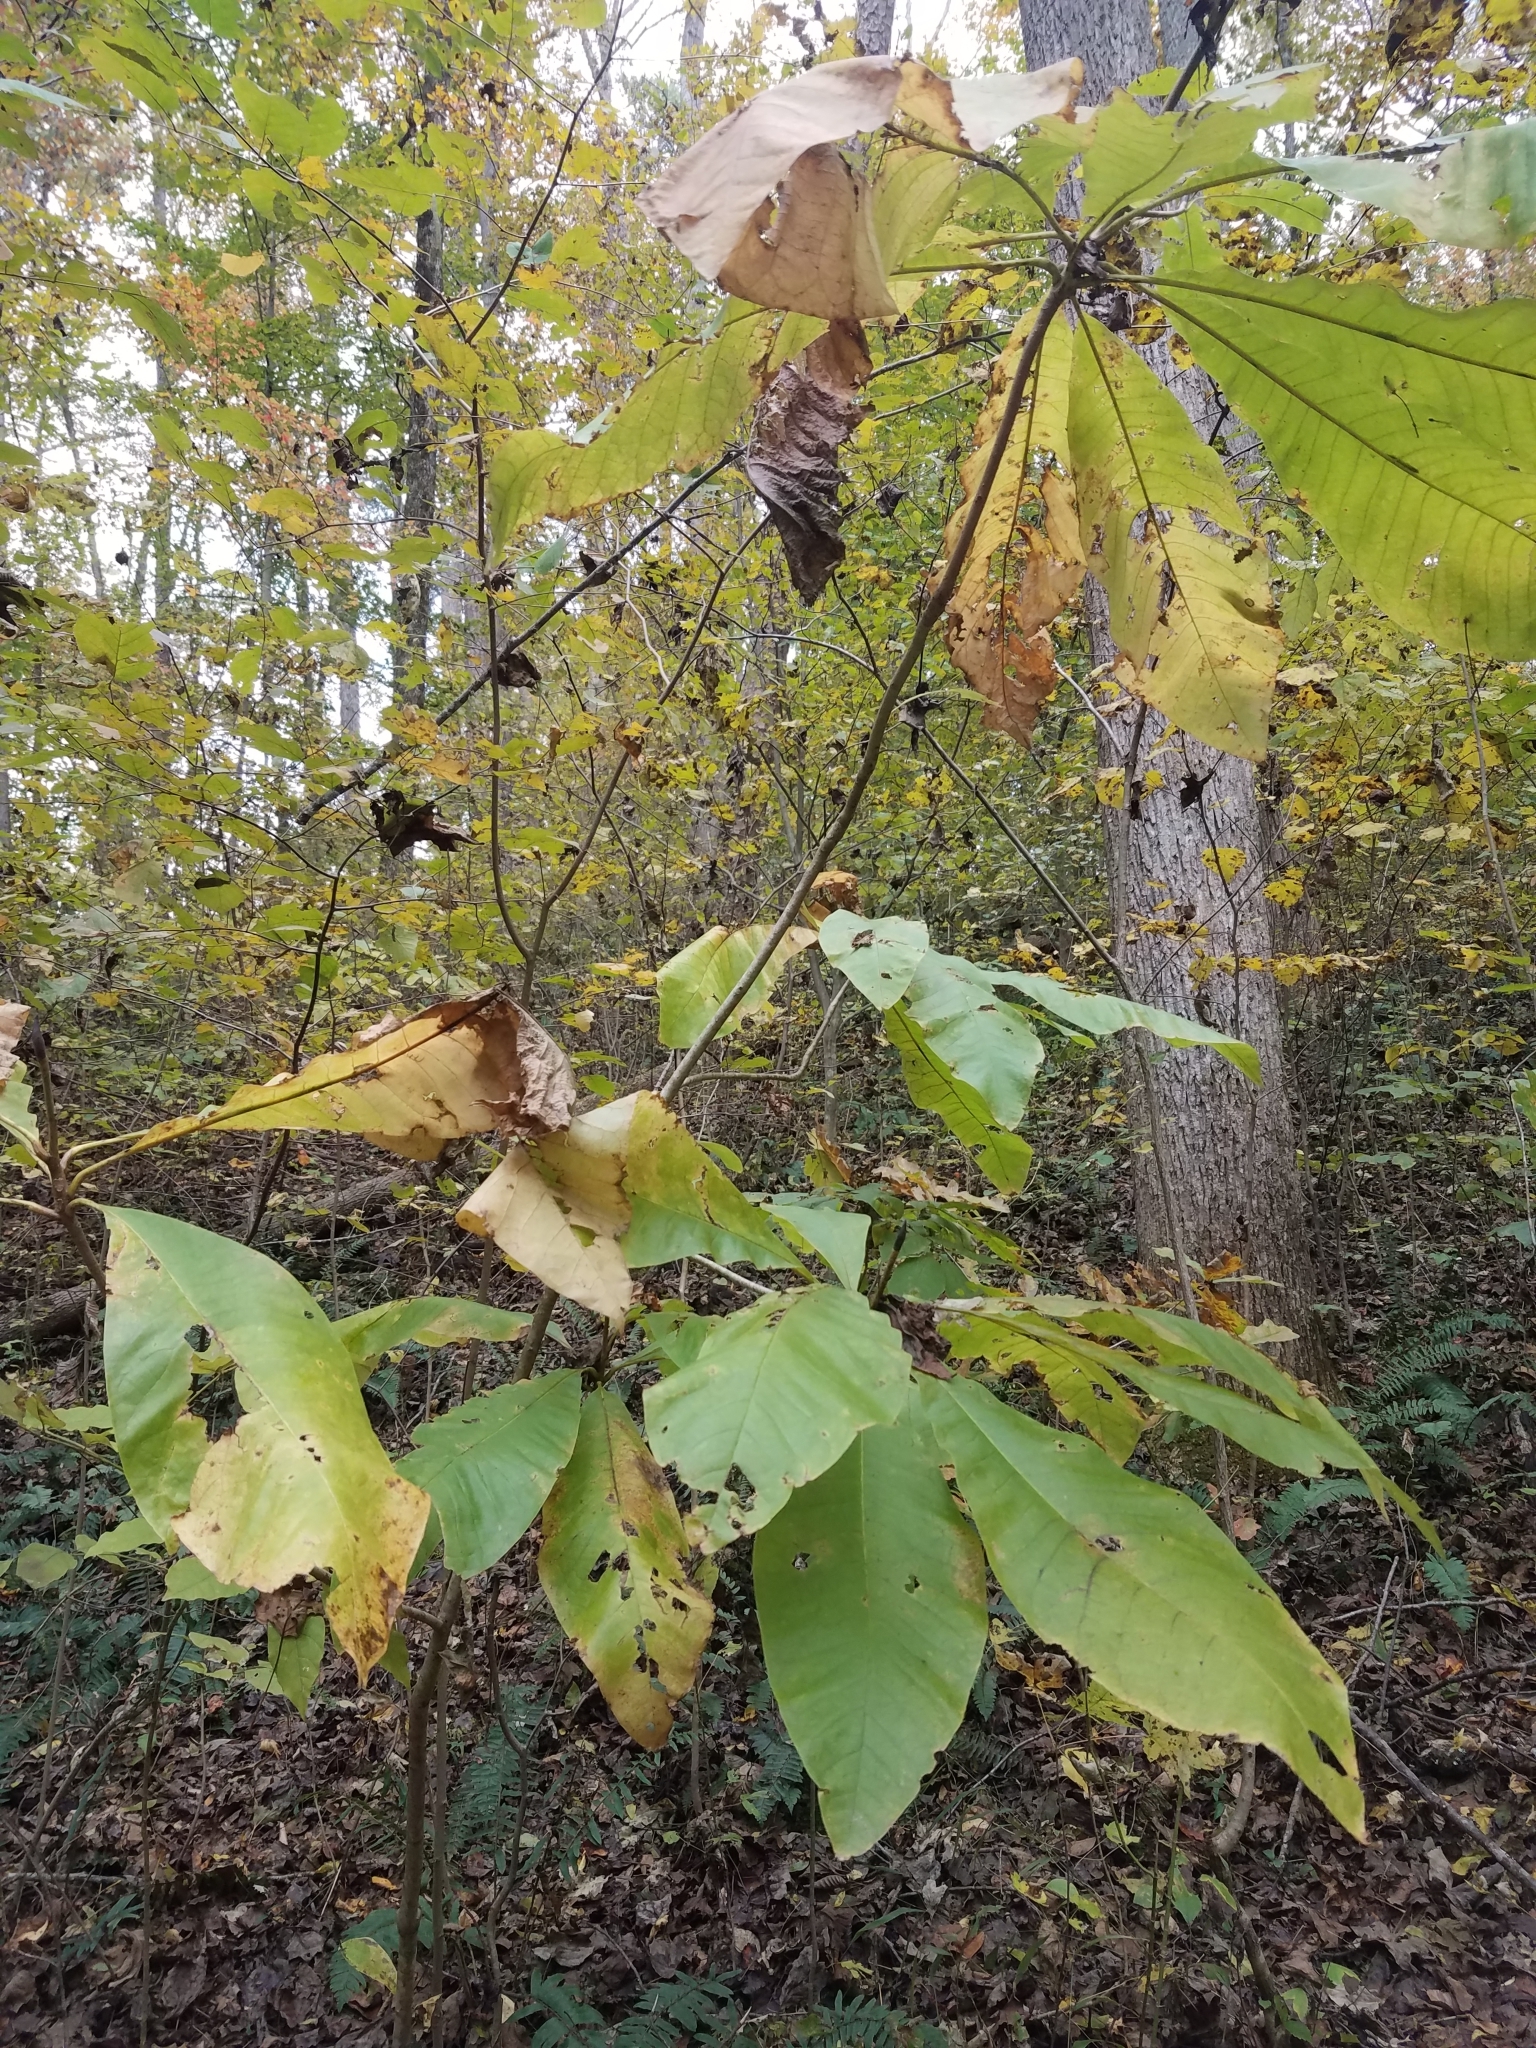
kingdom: Plantae
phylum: Tracheophyta
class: Magnoliopsida
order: Magnoliales
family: Magnoliaceae
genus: Magnolia
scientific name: Magnolia tripetala
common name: Umbrella magnolia
